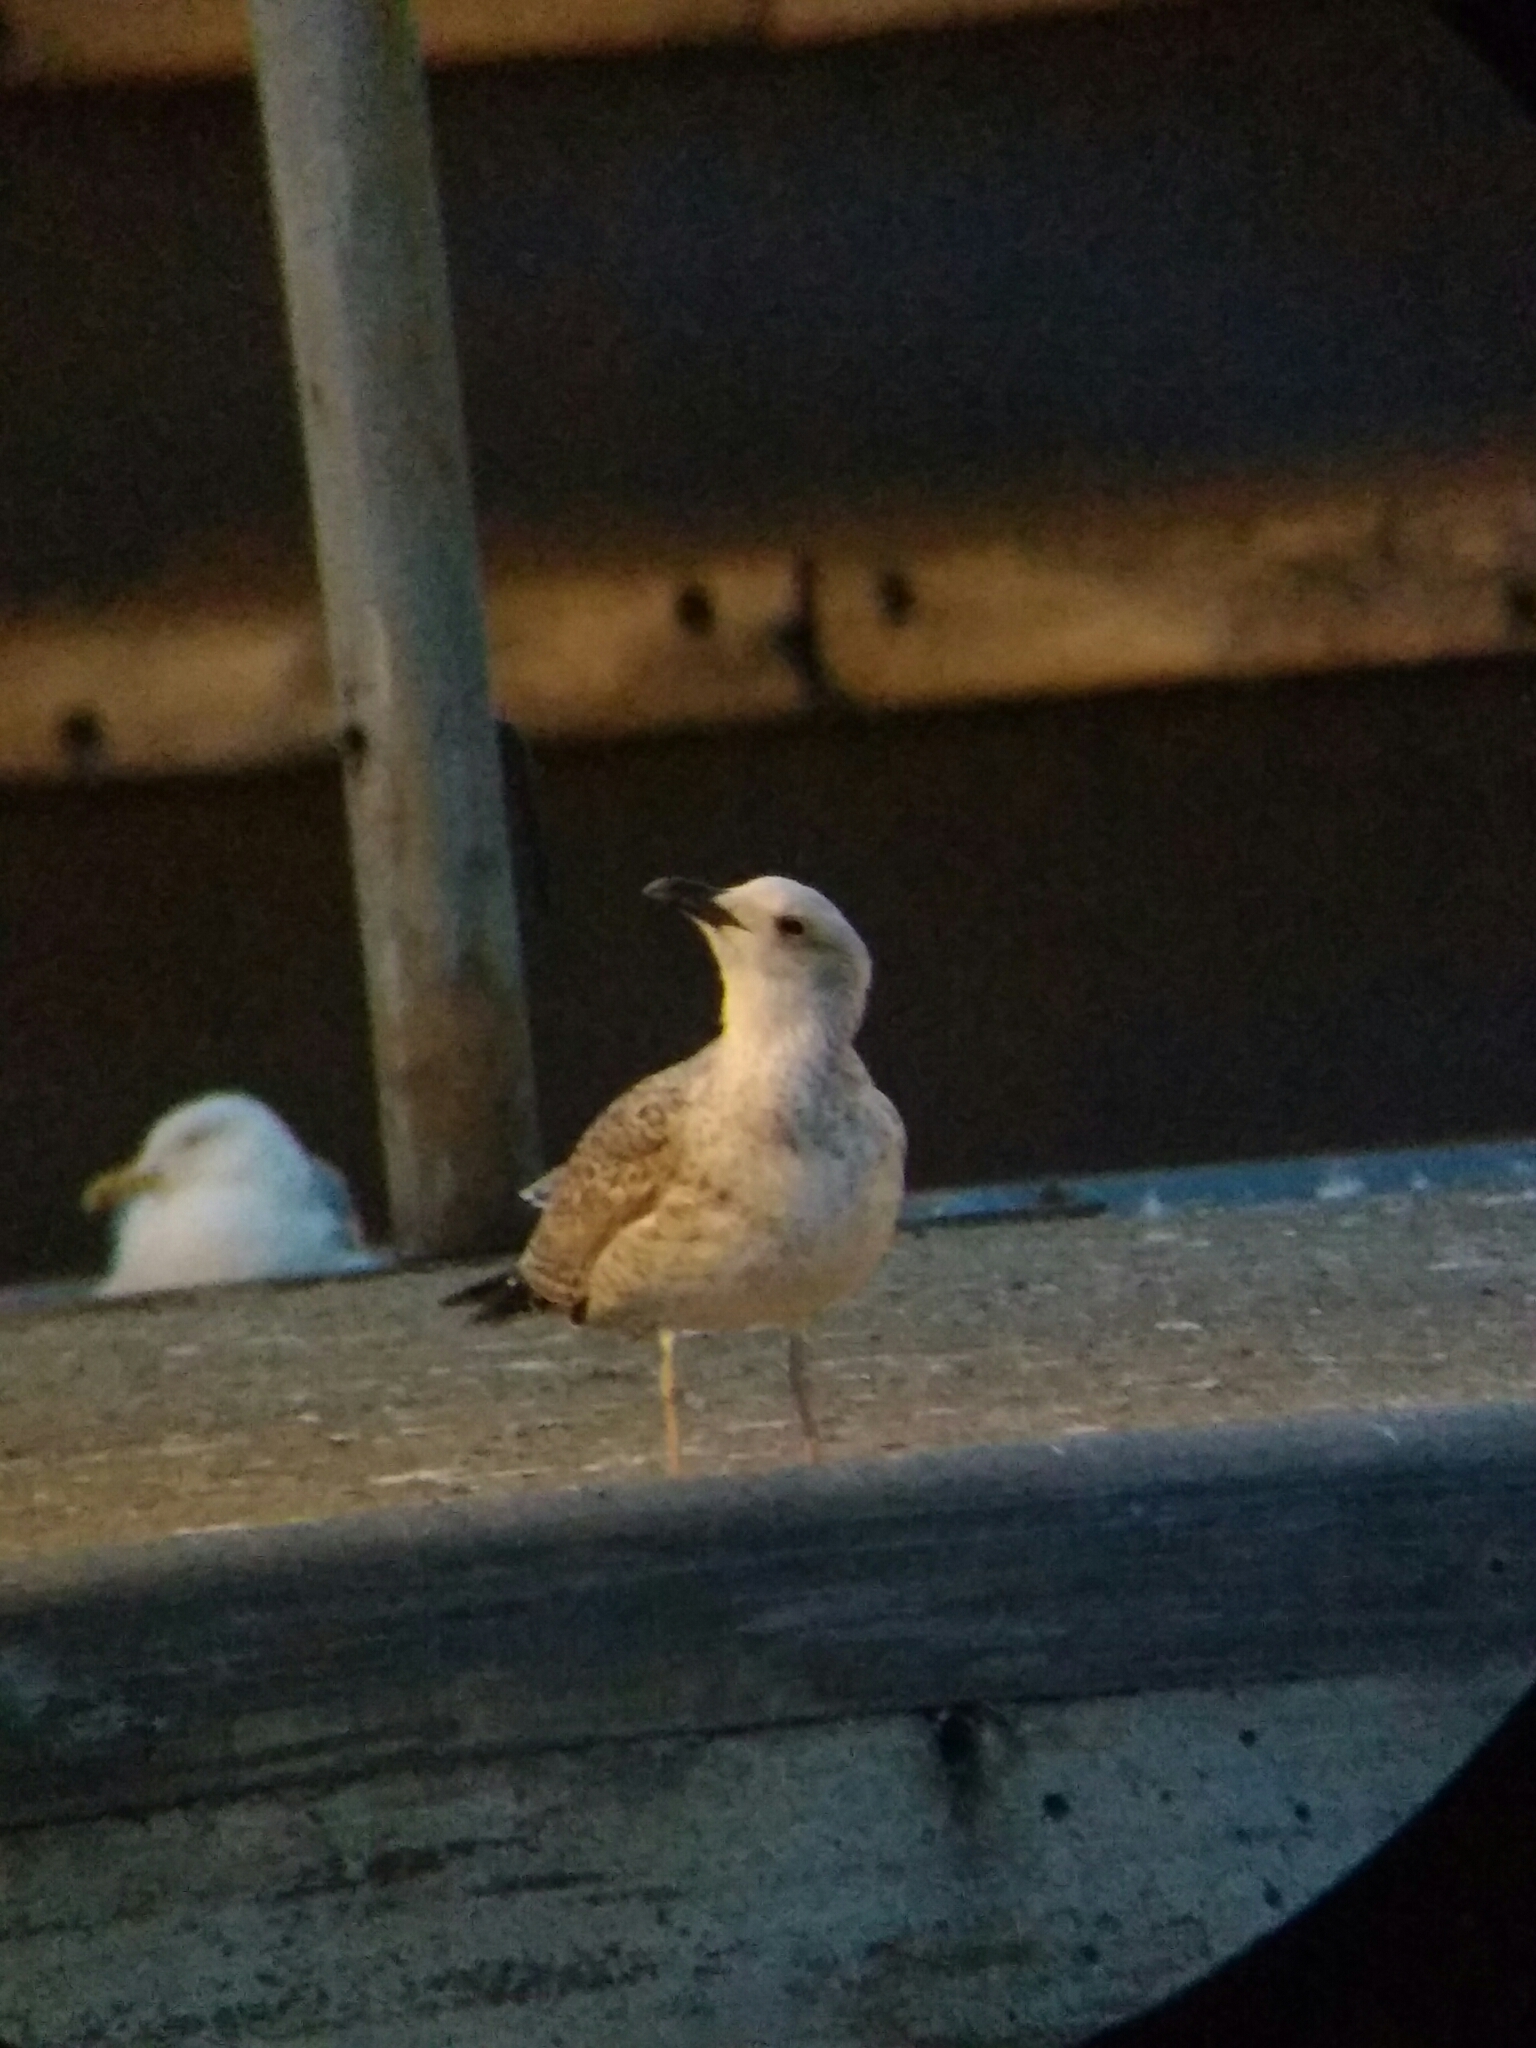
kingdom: Animalia
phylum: Chordata
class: Aves
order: Charadriiformes
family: Laridae
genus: Larus
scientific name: Larus michahellis
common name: Yellow-legged gull
